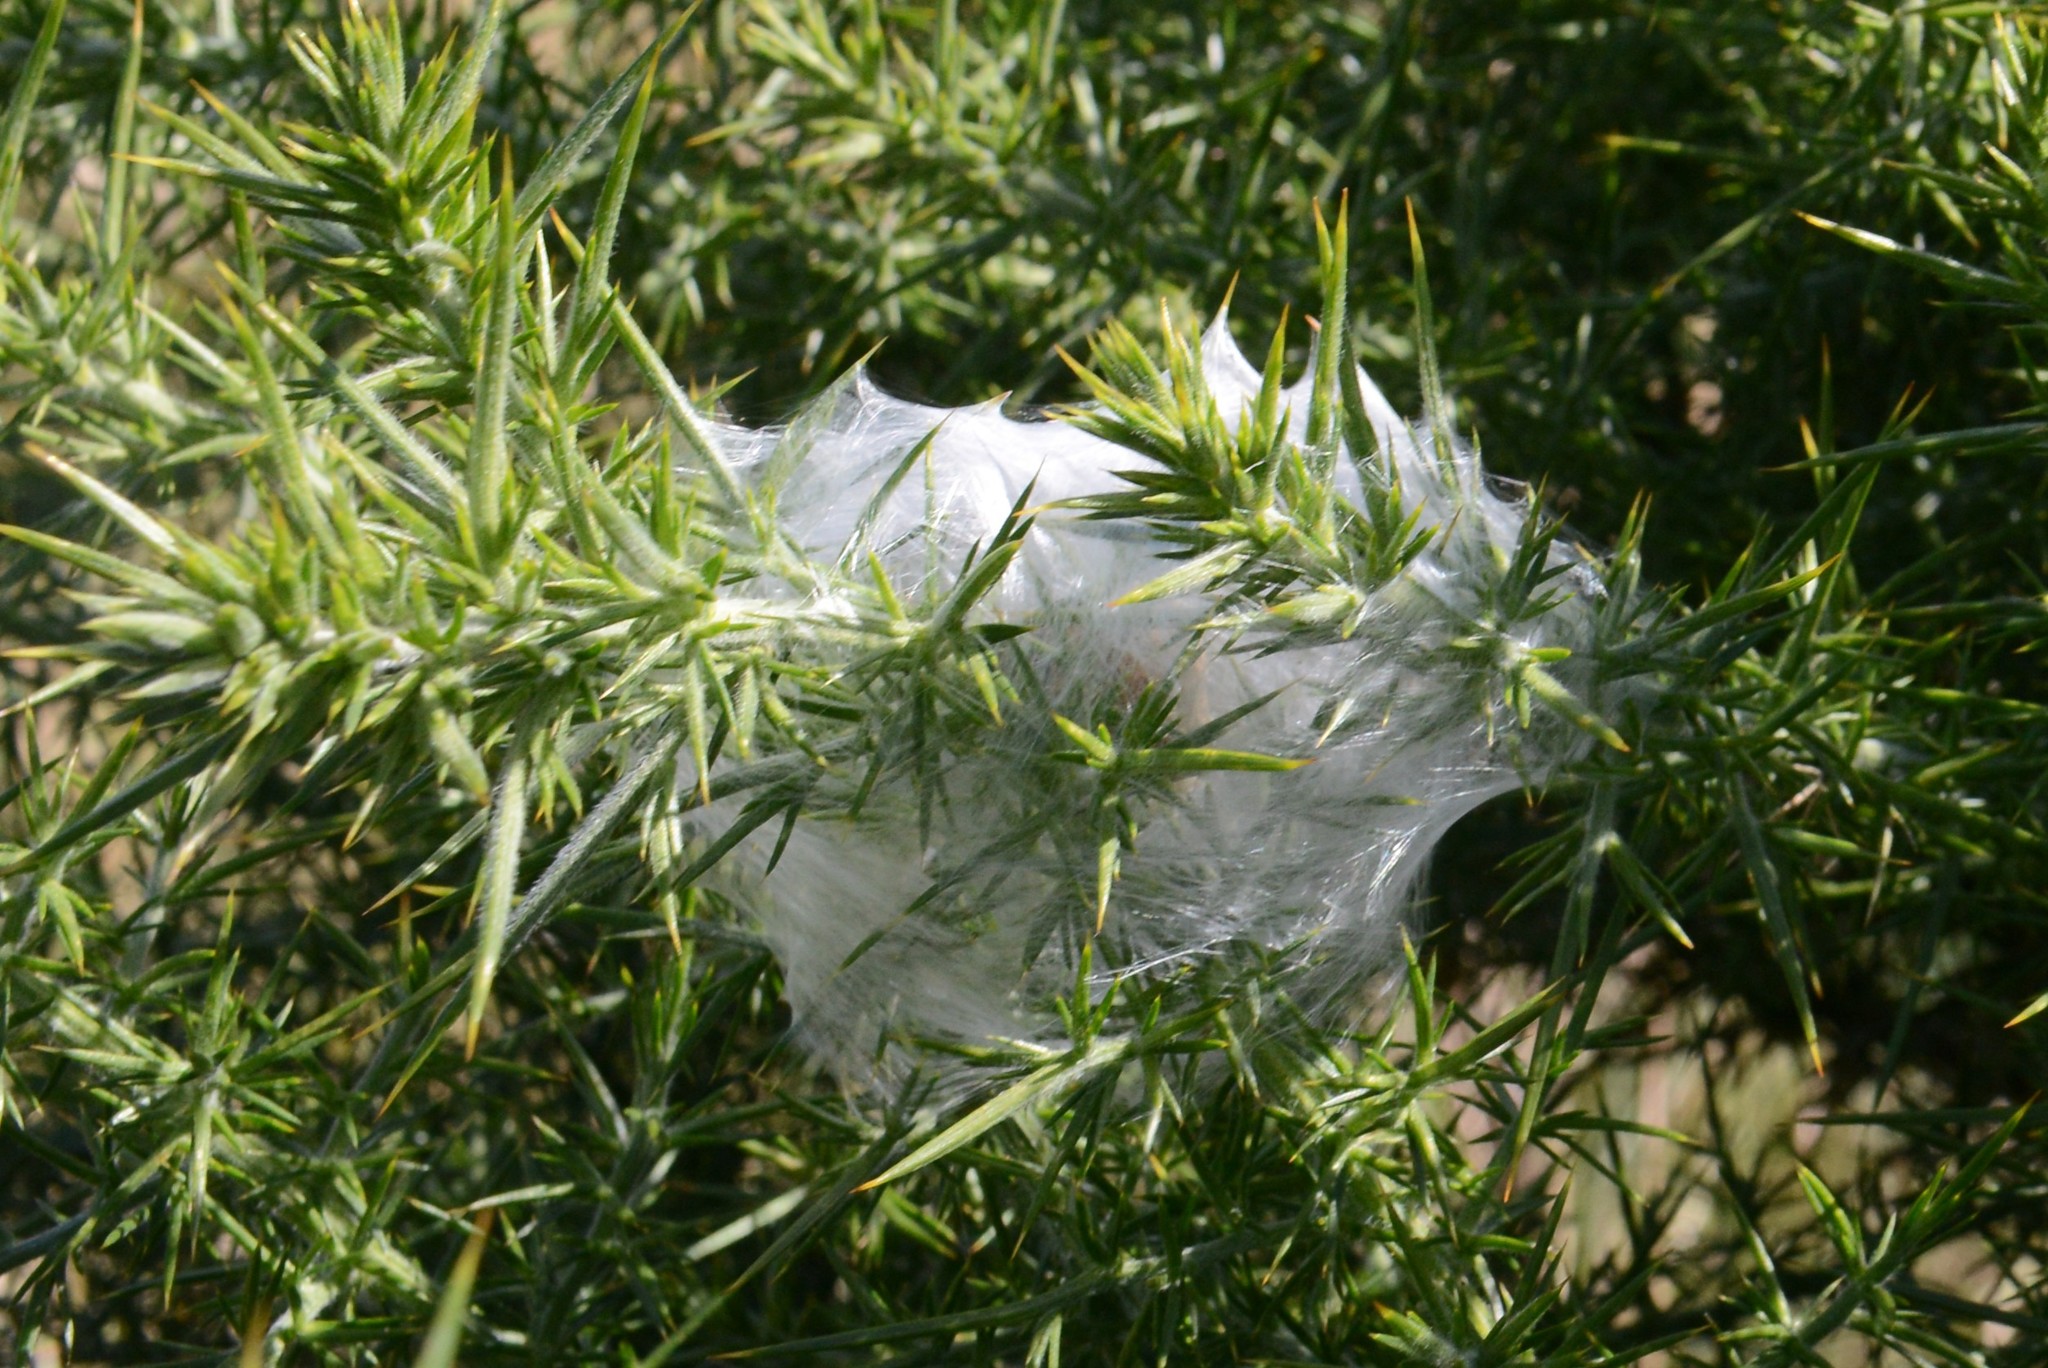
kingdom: Animalia
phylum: Arthropoda
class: Arachnida
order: Araneae
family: Pisauridae
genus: Dolomedes
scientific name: Dolomedes minor
